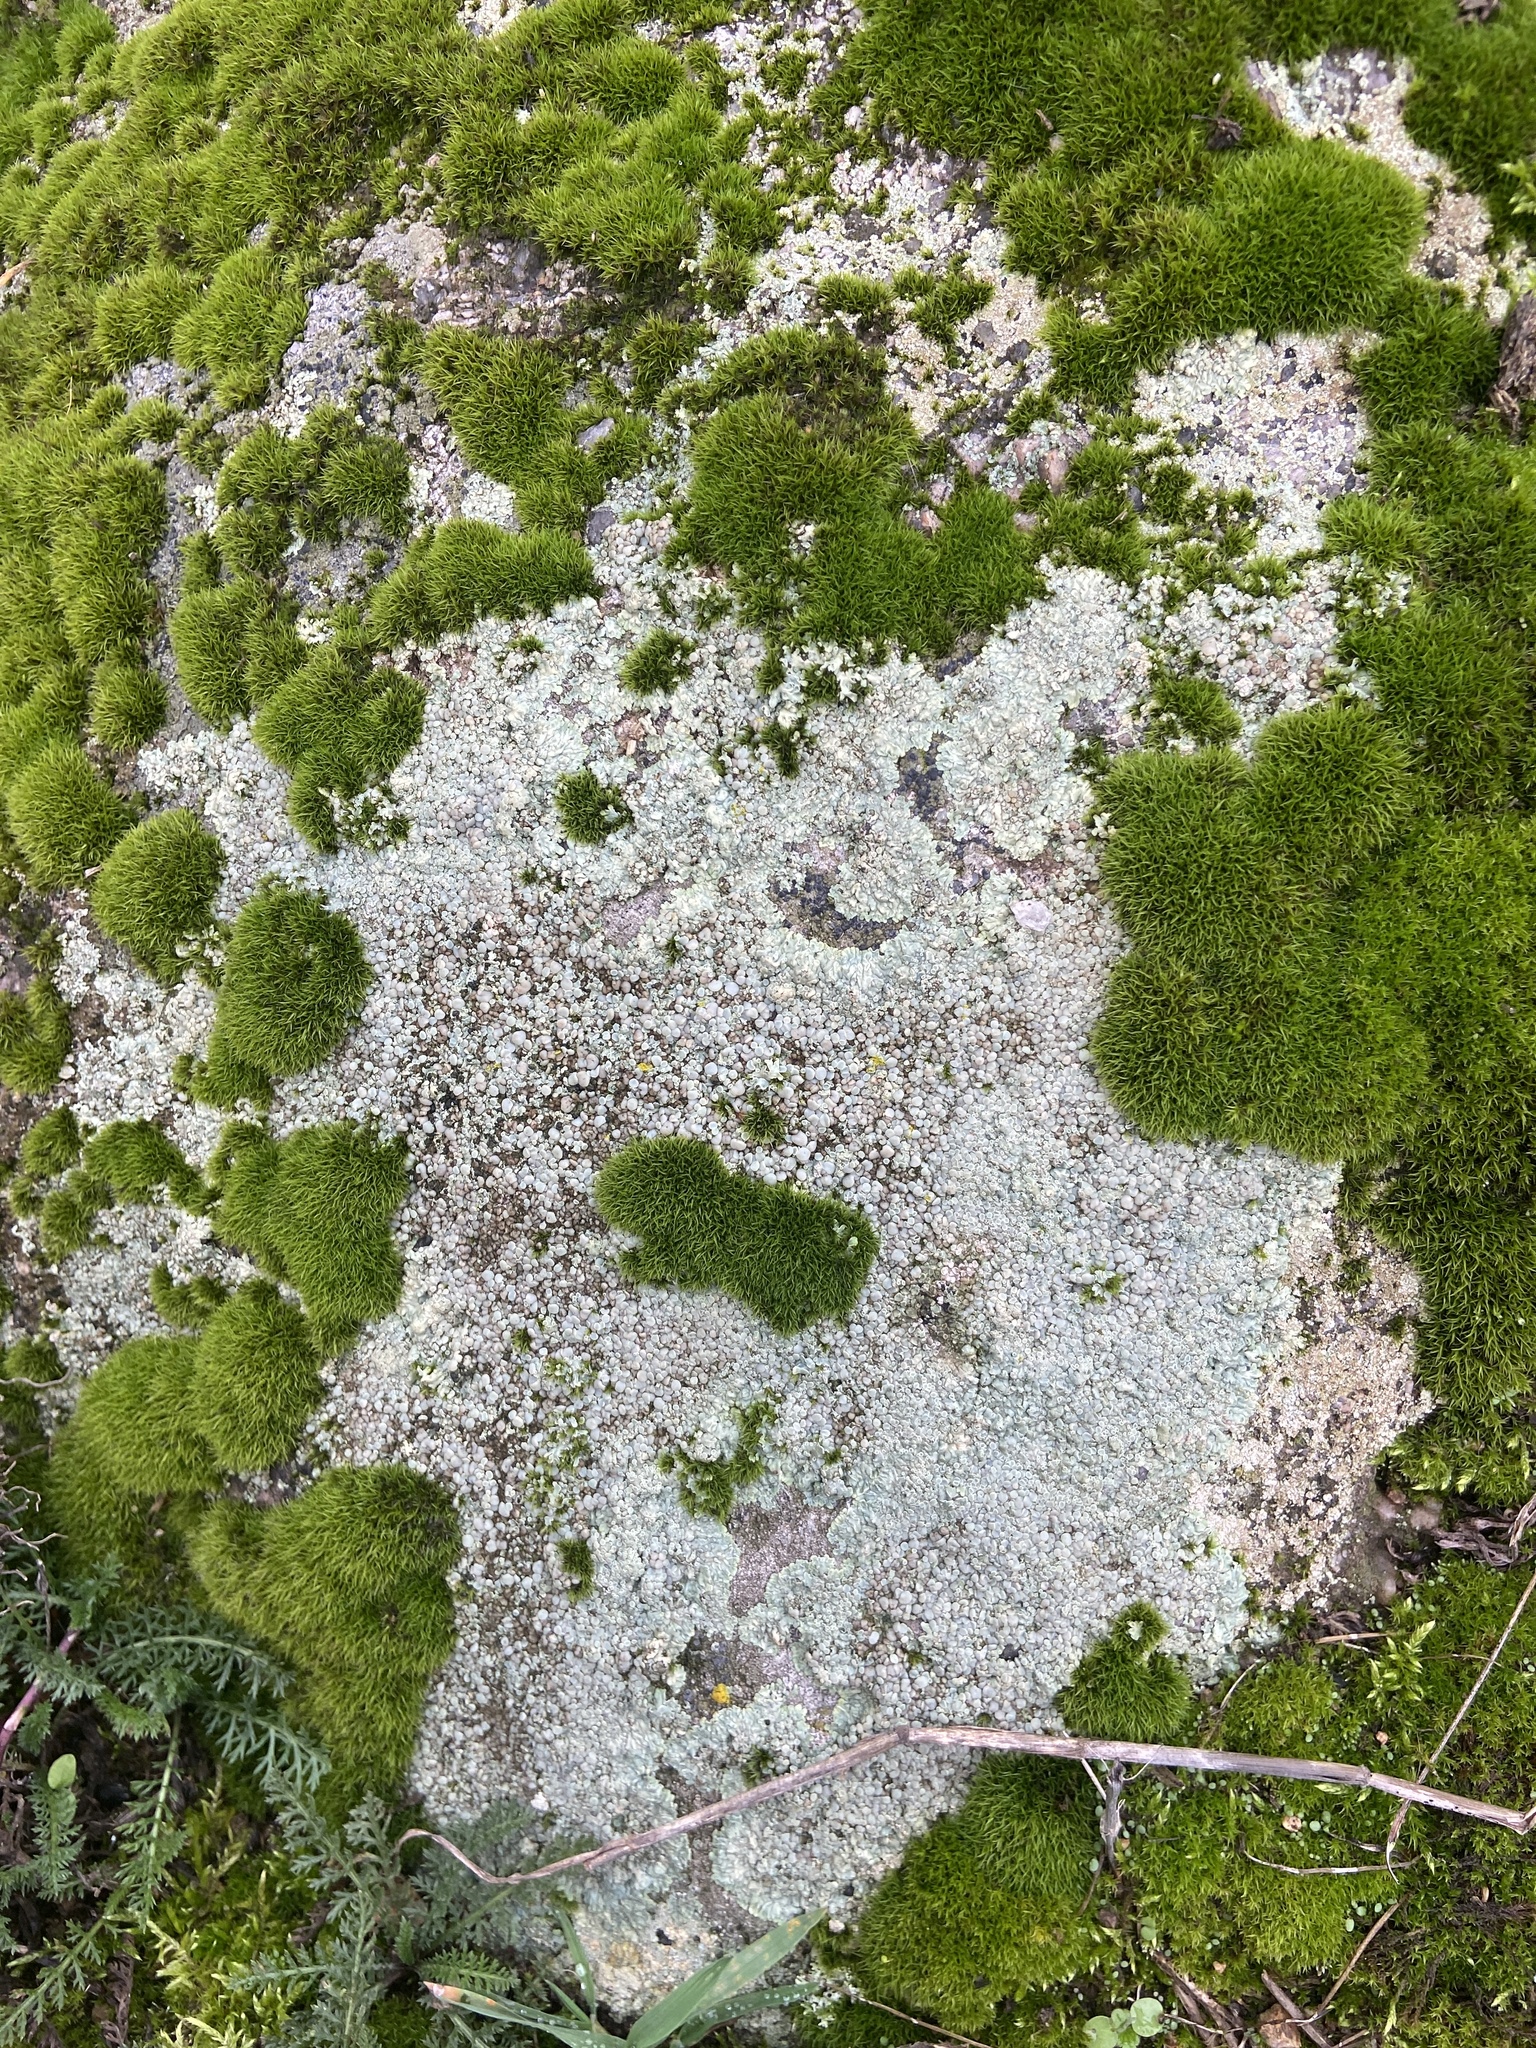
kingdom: Fungi
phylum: Ascomycota
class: Lecanoromycetes
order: Lecanorales
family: Lecanoraceae
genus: Protoparmeliopsis
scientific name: Protoparmeliopsis muralis
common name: Stonewall rim lichen
